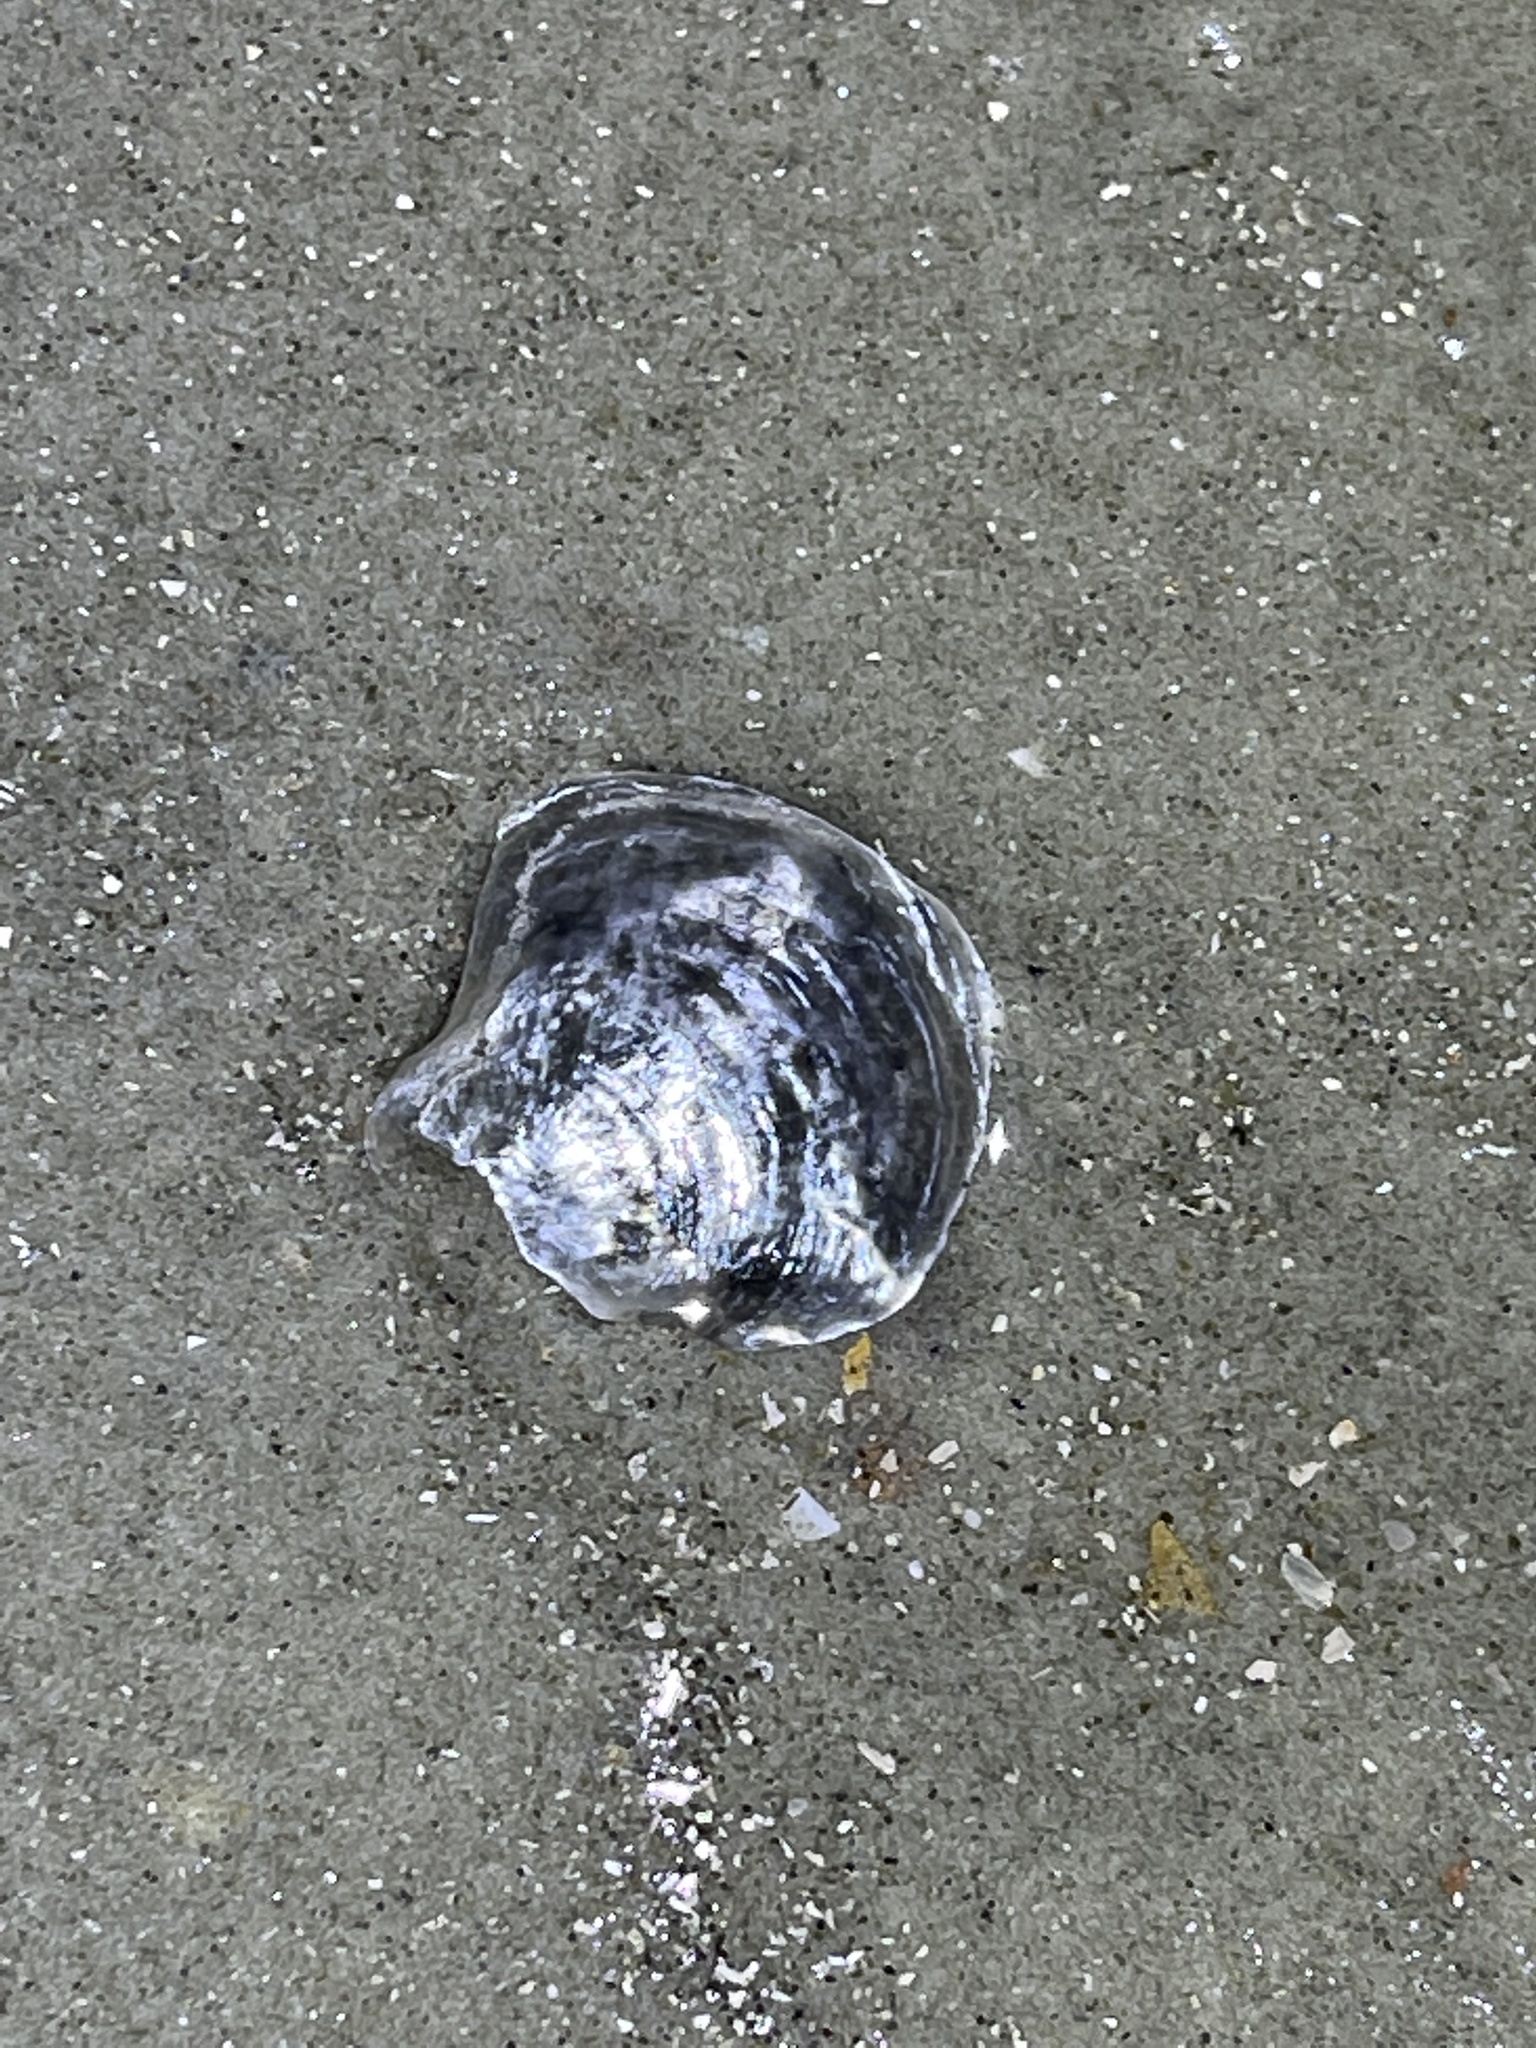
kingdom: Animalia
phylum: Mollusca
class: Bivalvia
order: Pectinida
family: Anomiidae
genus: Anomia
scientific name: Anomia simplex
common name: Common jingle shell
